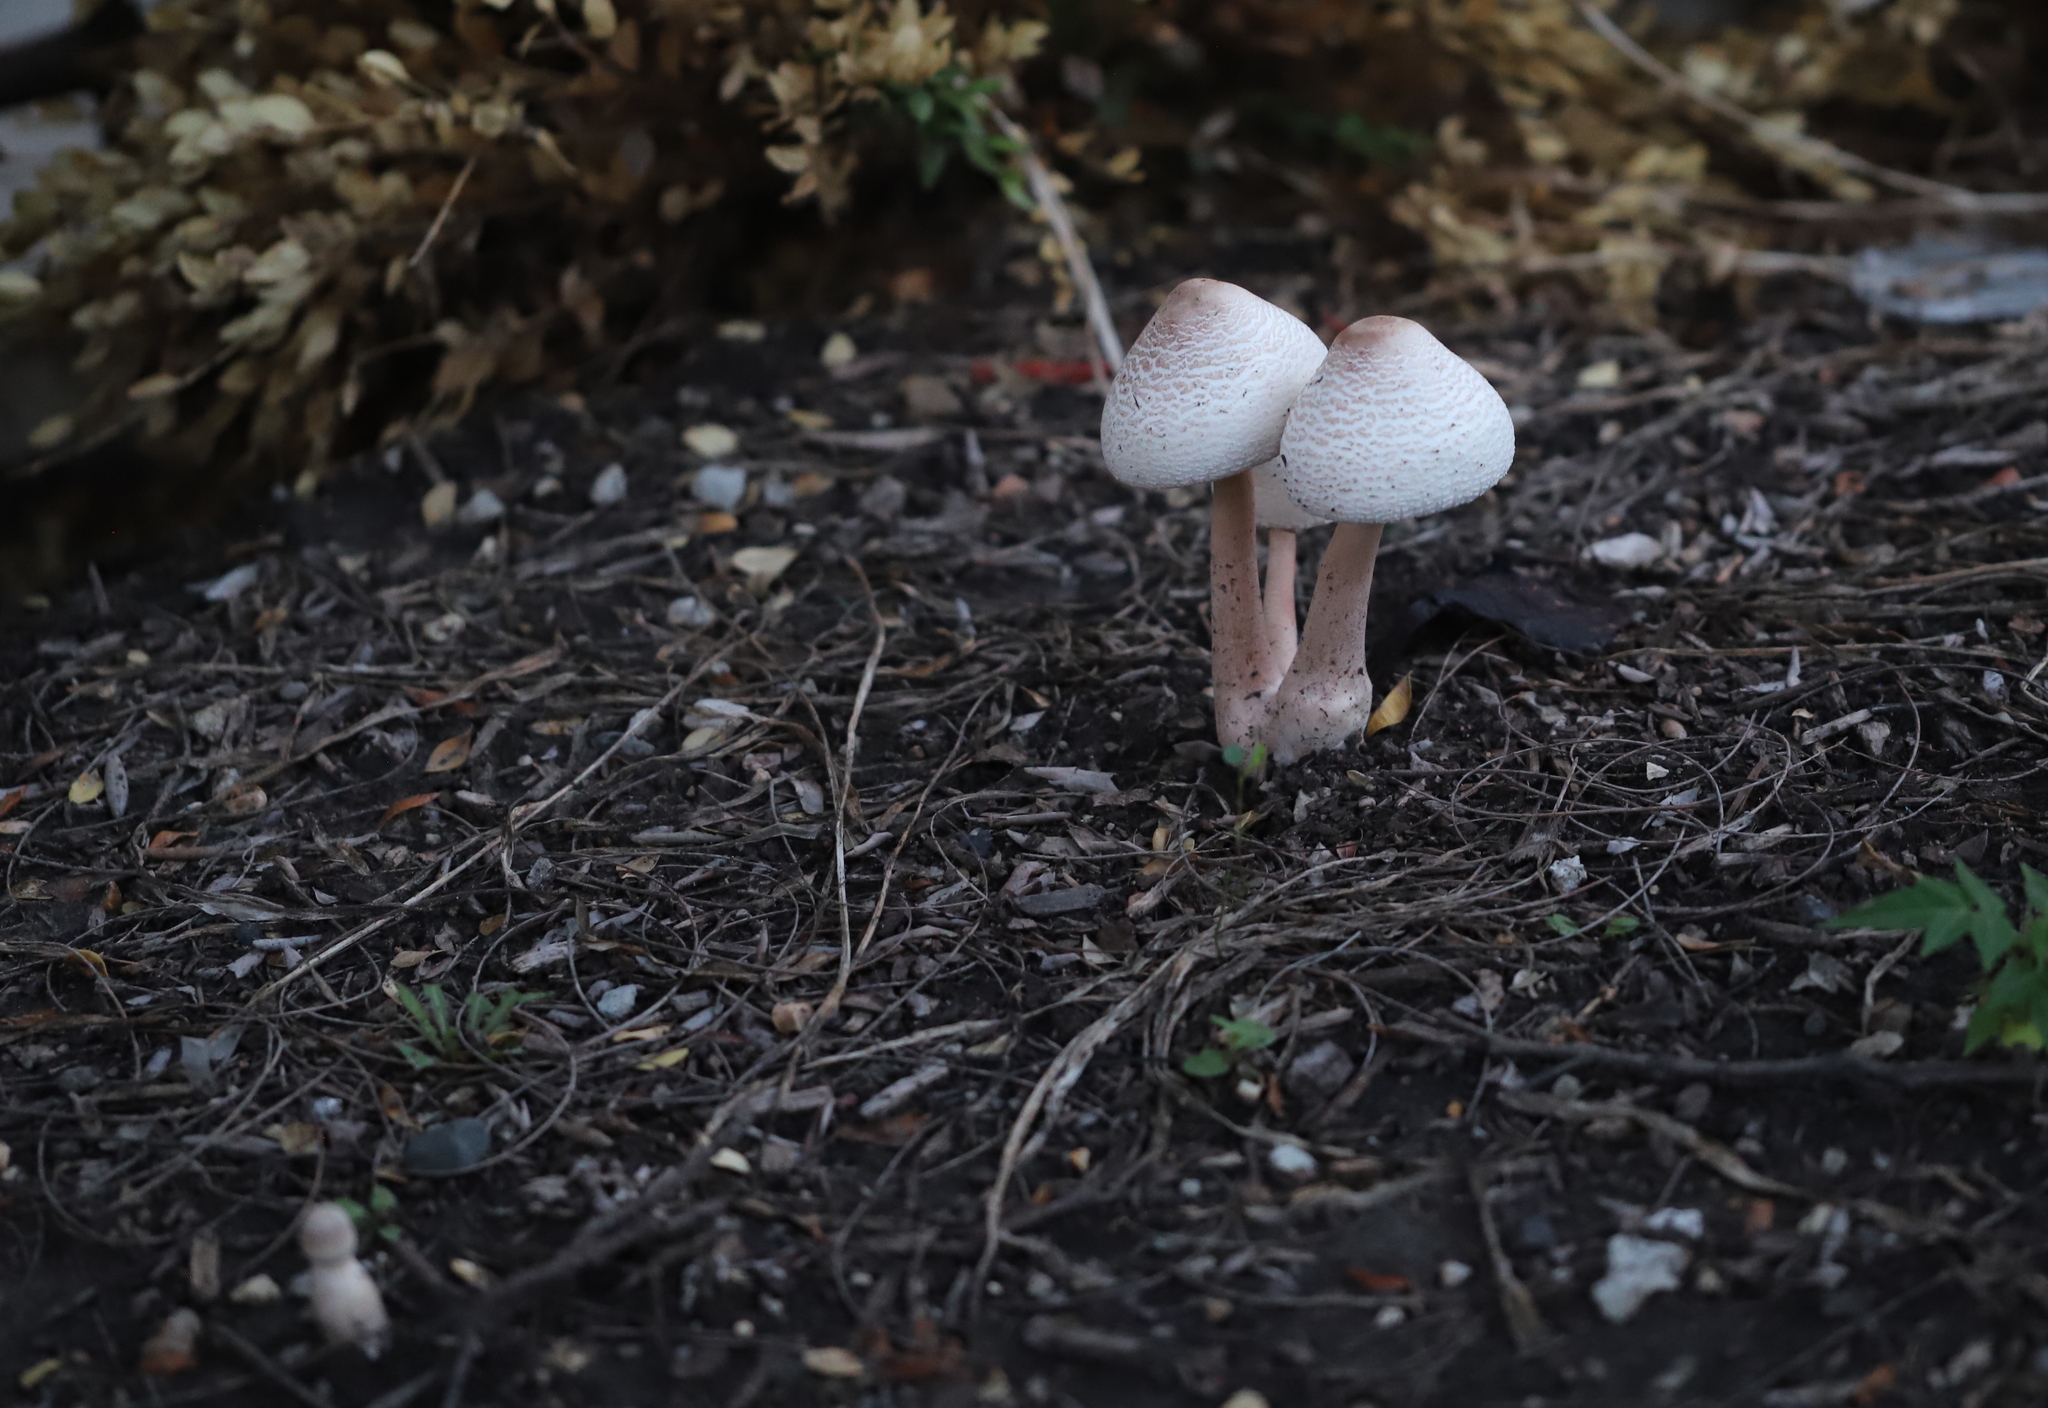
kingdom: Fungi
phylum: Basidiomycota
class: Agaricomycetes
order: Agaricales
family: Agaricaceae
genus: Leucocoprinus
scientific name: Leucocoprinus cepistipes
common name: Onion-stalk parasol
